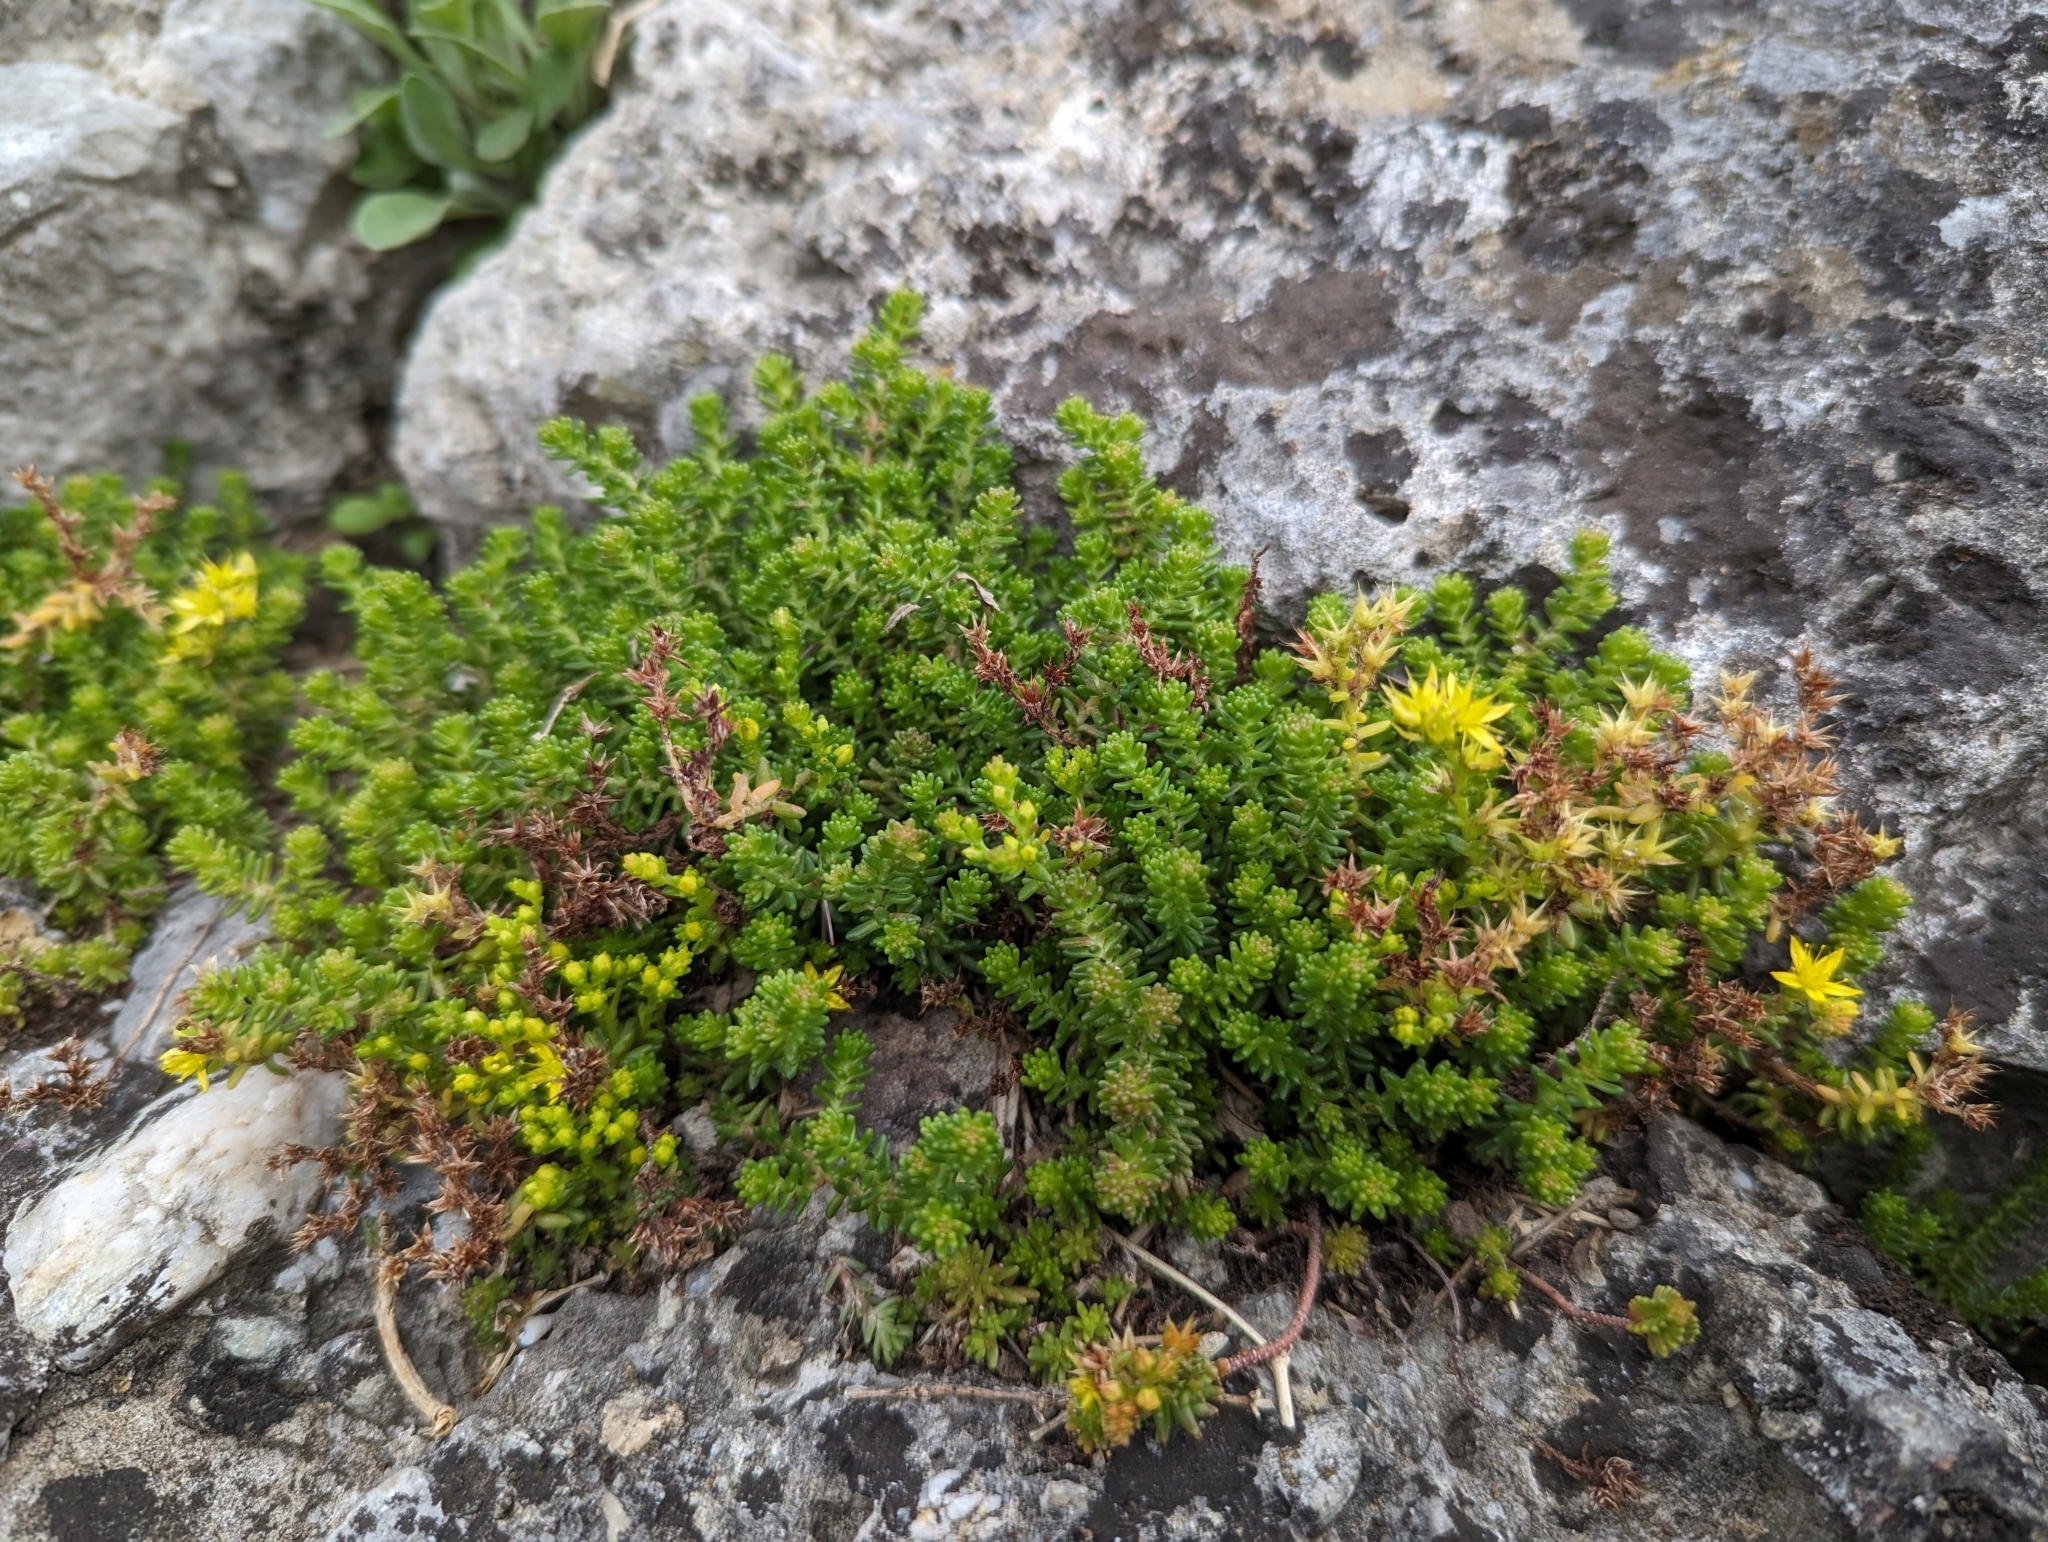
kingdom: Plantae
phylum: Tracheophyta
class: Magnoliopsida
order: Saxifragales
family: Crassulaceae
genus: Sedum
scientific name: Sedum sexangulare
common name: Tasteless stonecrop
